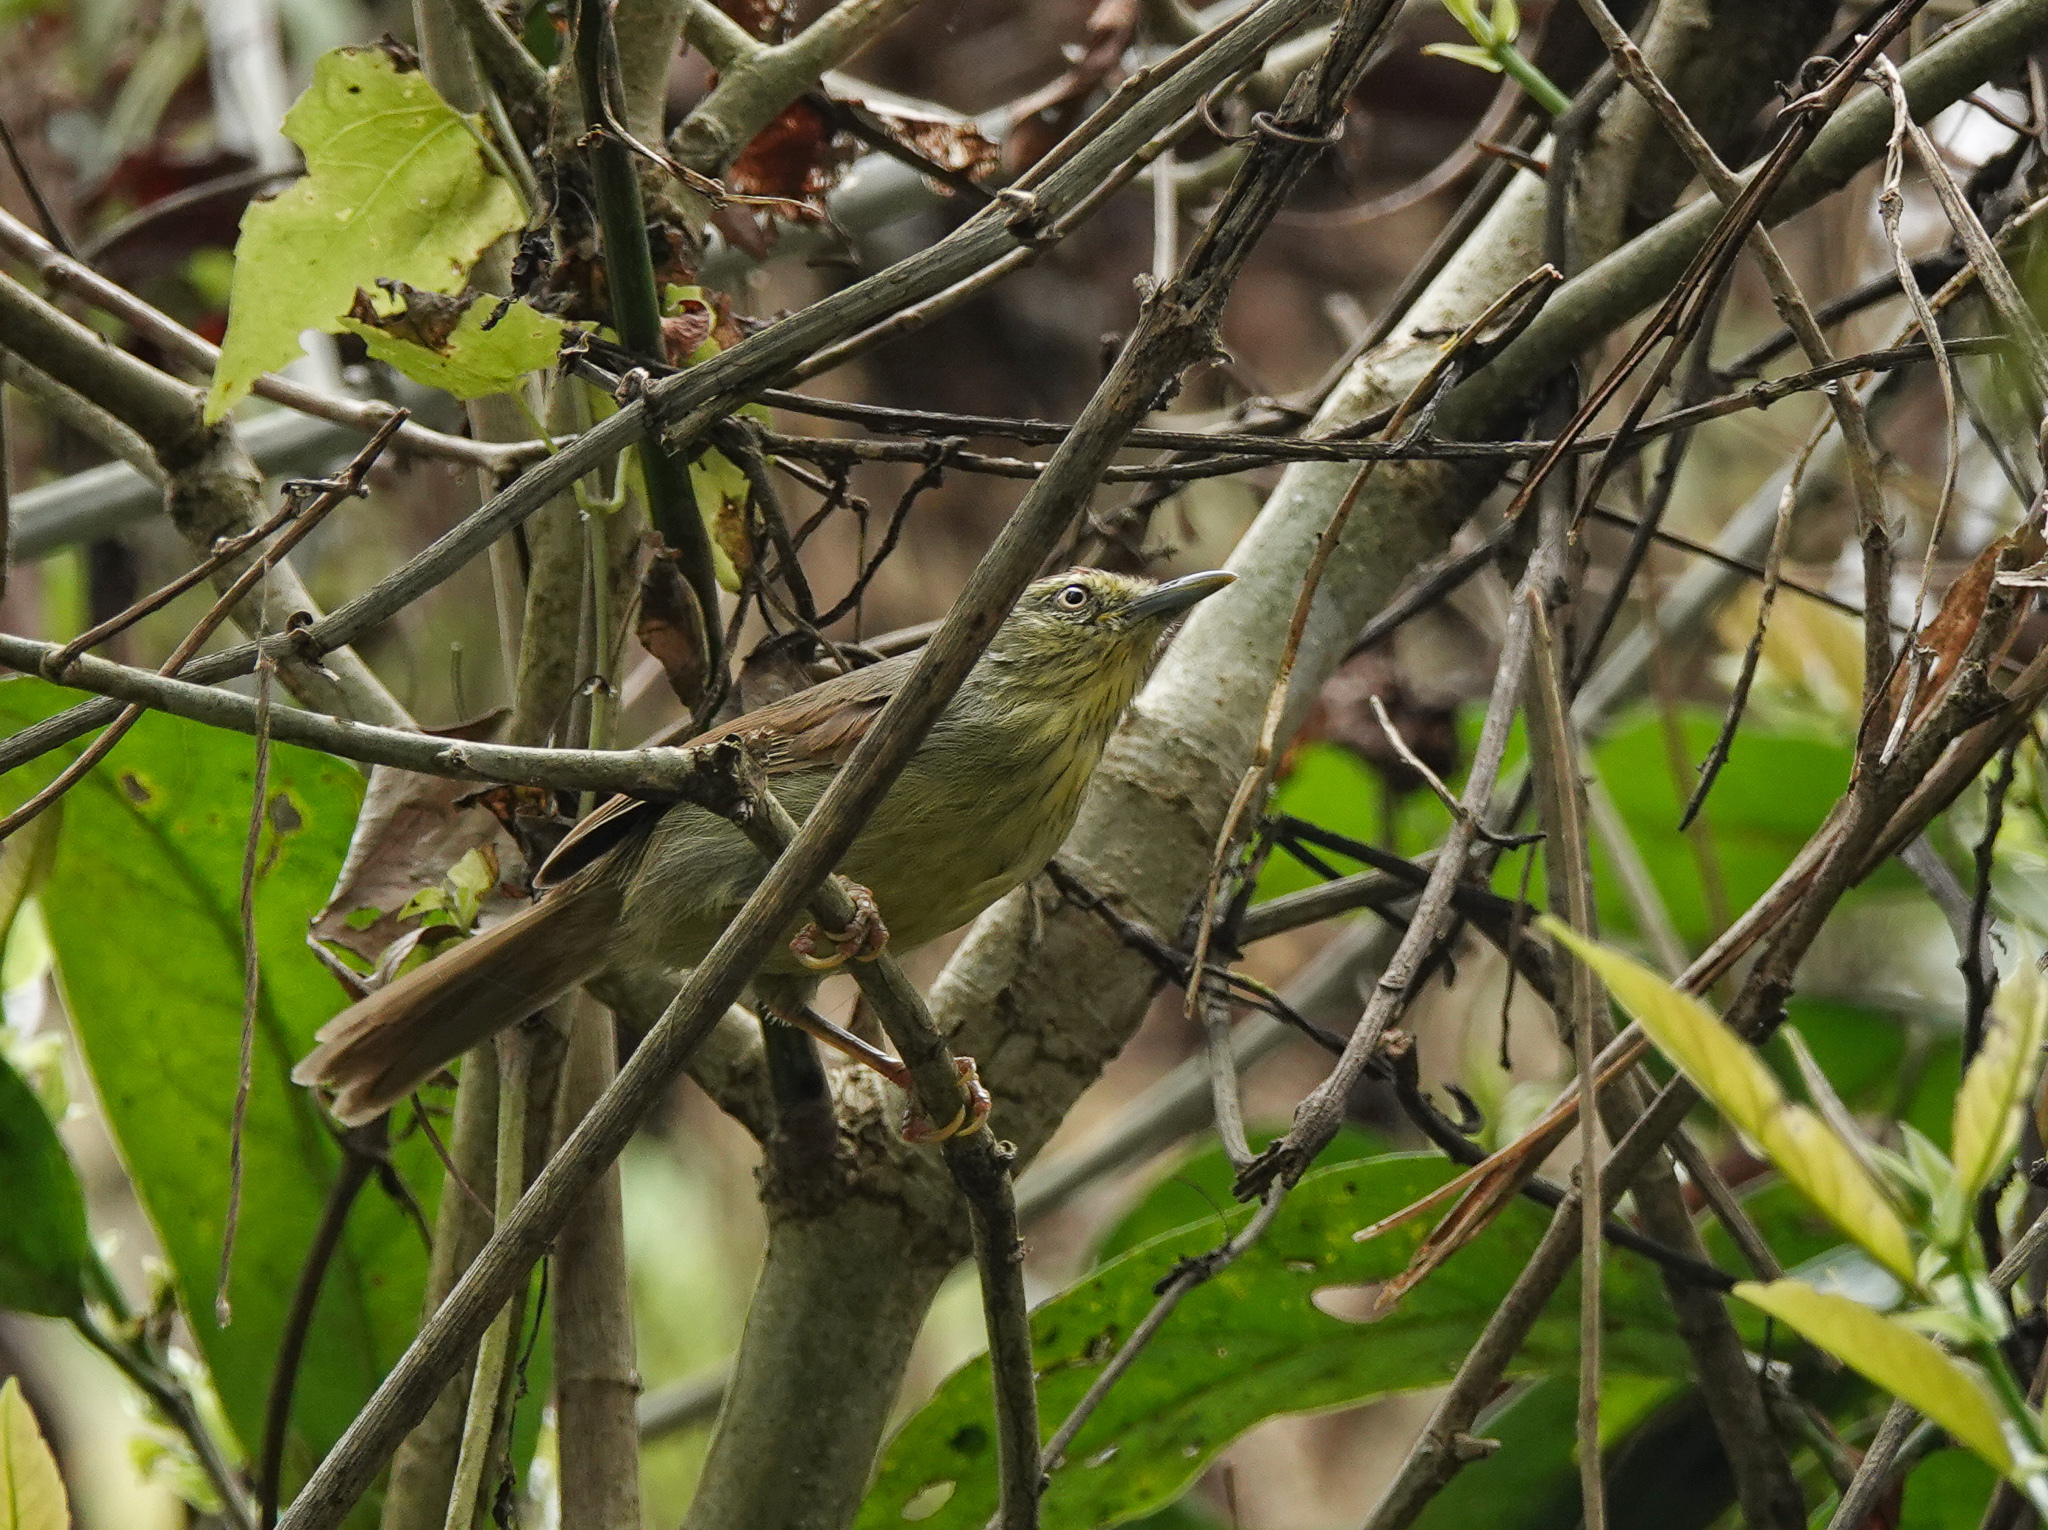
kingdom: Animalia
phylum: Chordata
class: Aves
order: Passeriformes
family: Timaliidae
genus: Macronus
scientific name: Macronus gularis
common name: Striped tit-babbler
